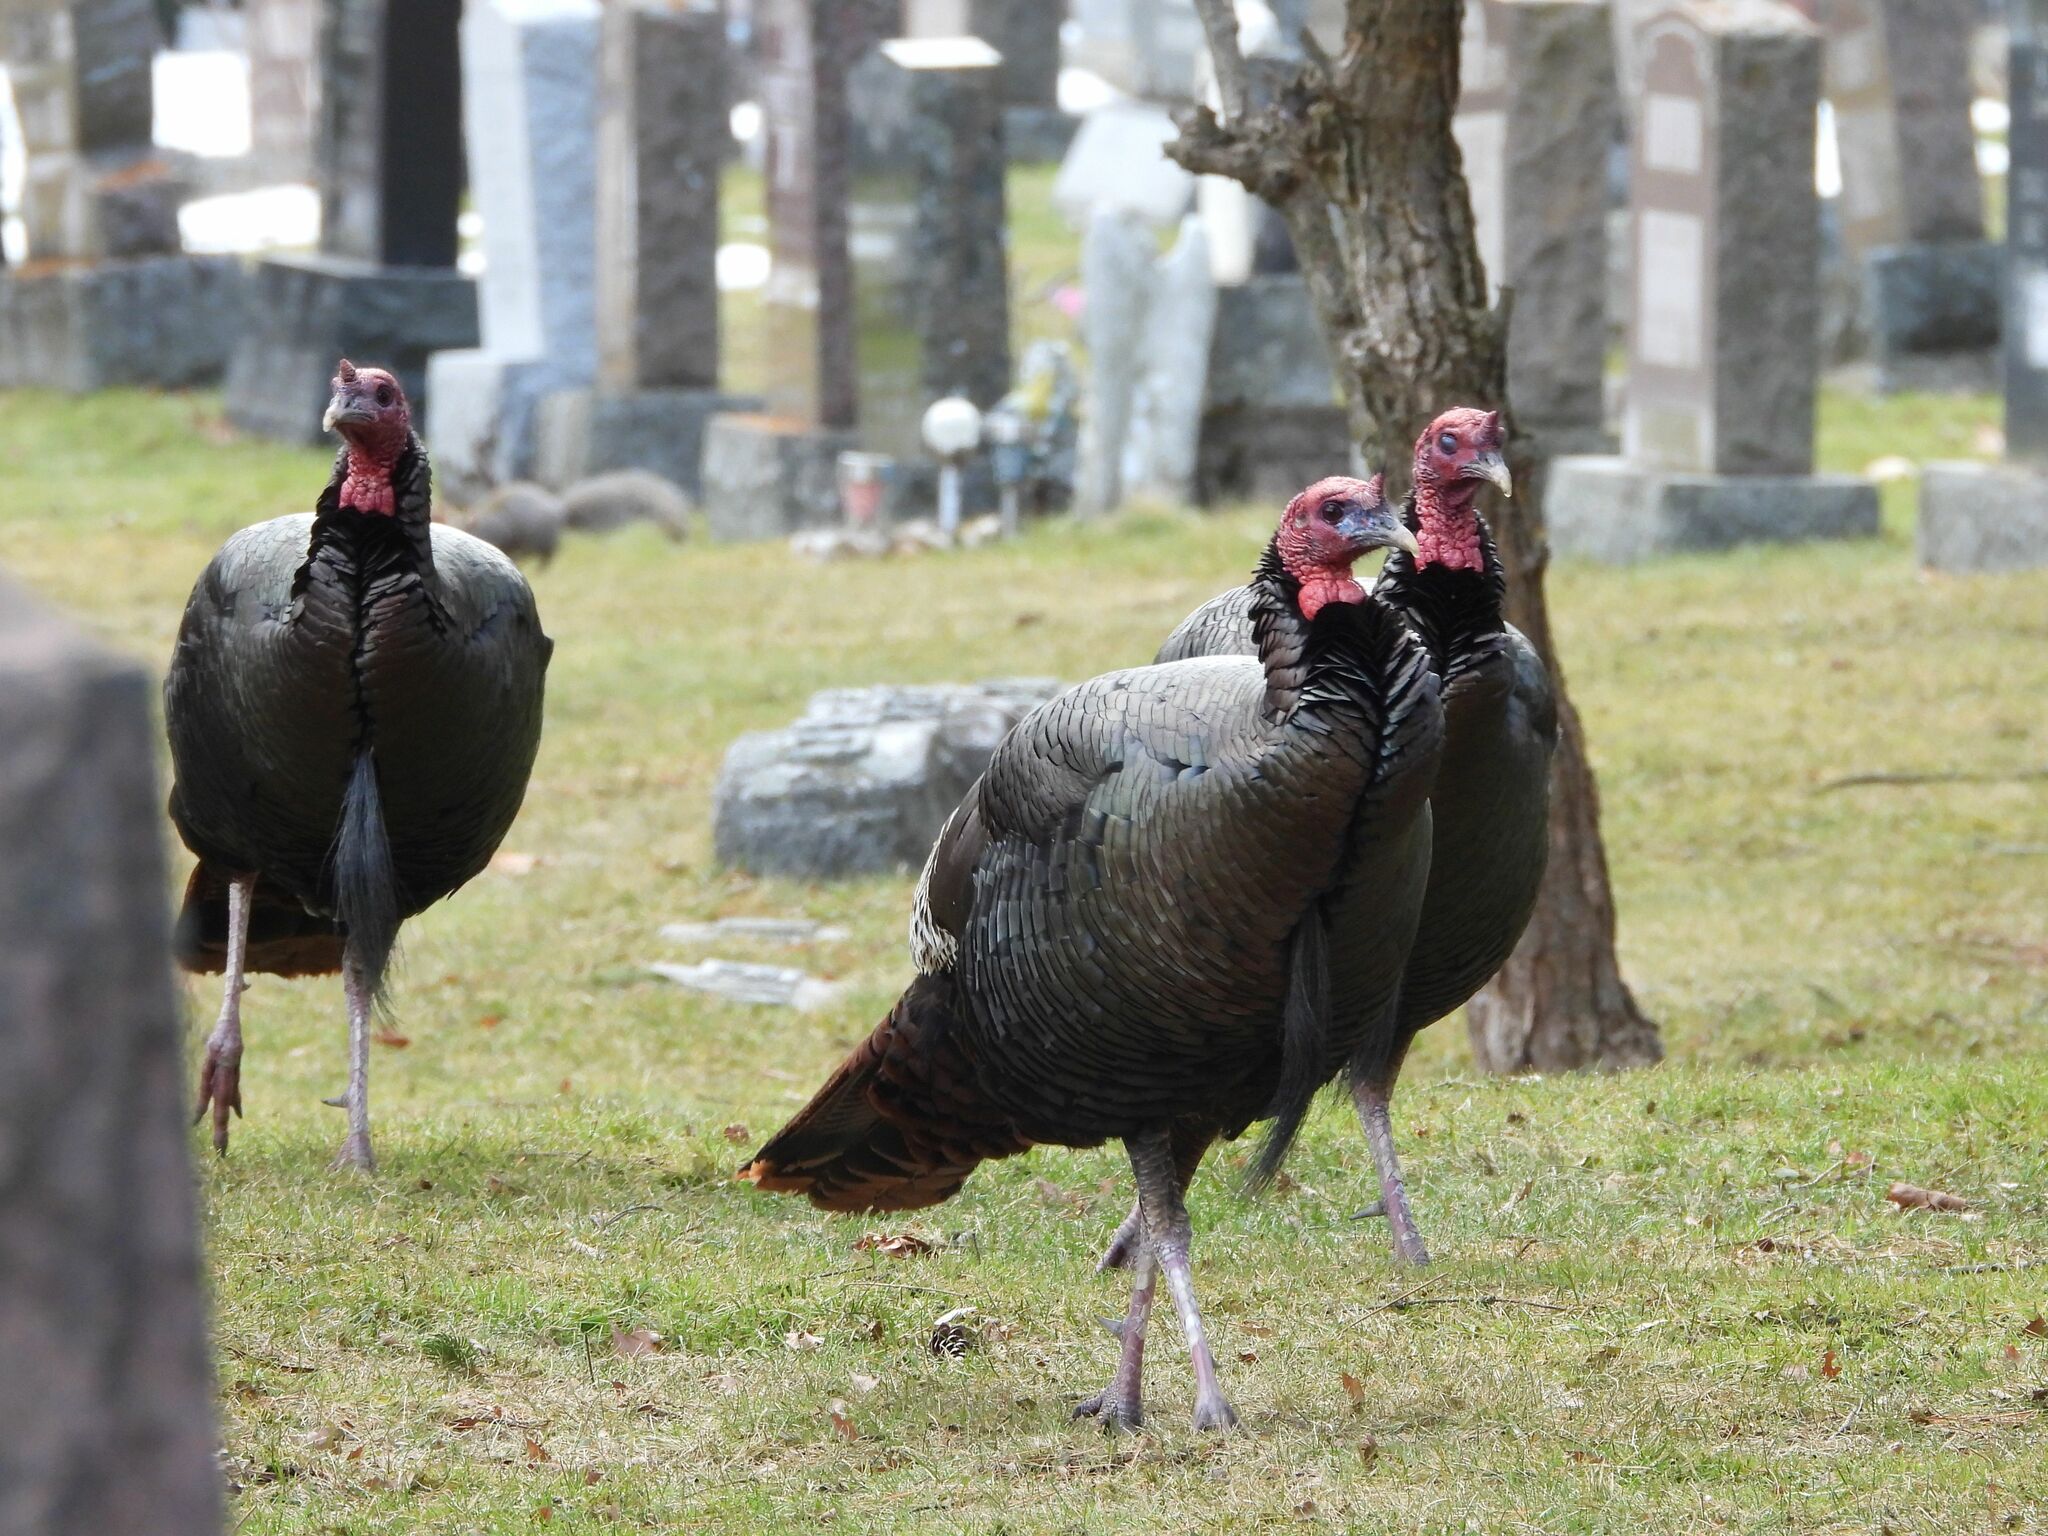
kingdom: Animalia
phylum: Chordata
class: Aves
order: Galliformes
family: Phasianidae
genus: Meleagris
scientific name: Meleagris gallopavo
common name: Wild turkey
